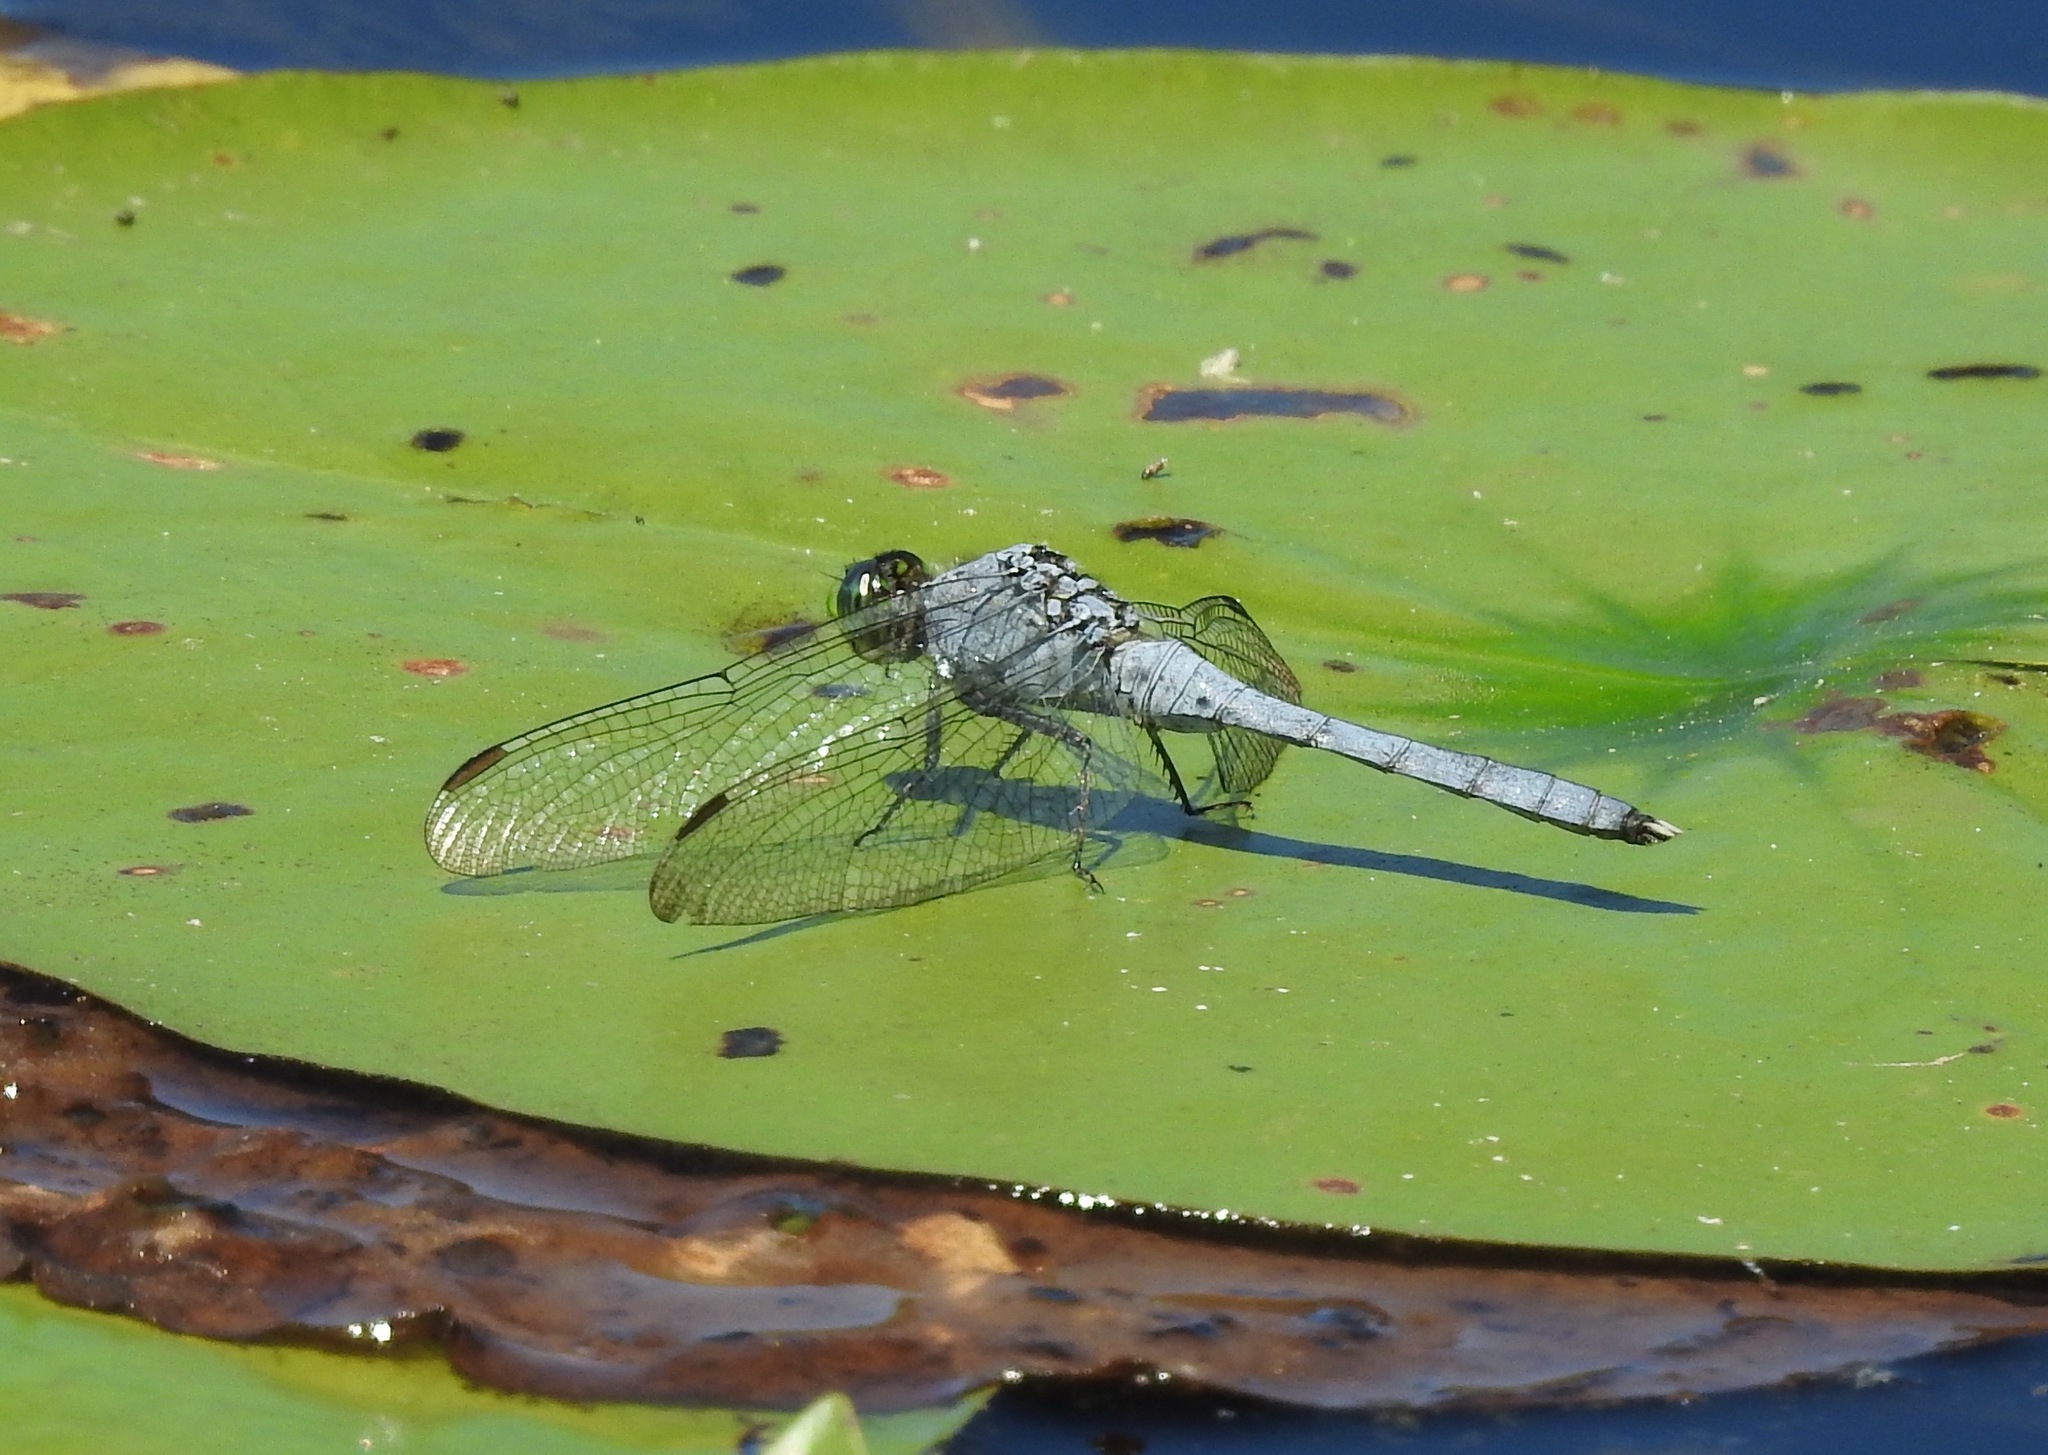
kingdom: Animalia
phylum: Arthropoda
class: Insecta
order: Odonata
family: Libellulidae
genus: Erythemis
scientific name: Erythemis simplicicollis
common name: Eastern pondhawk
